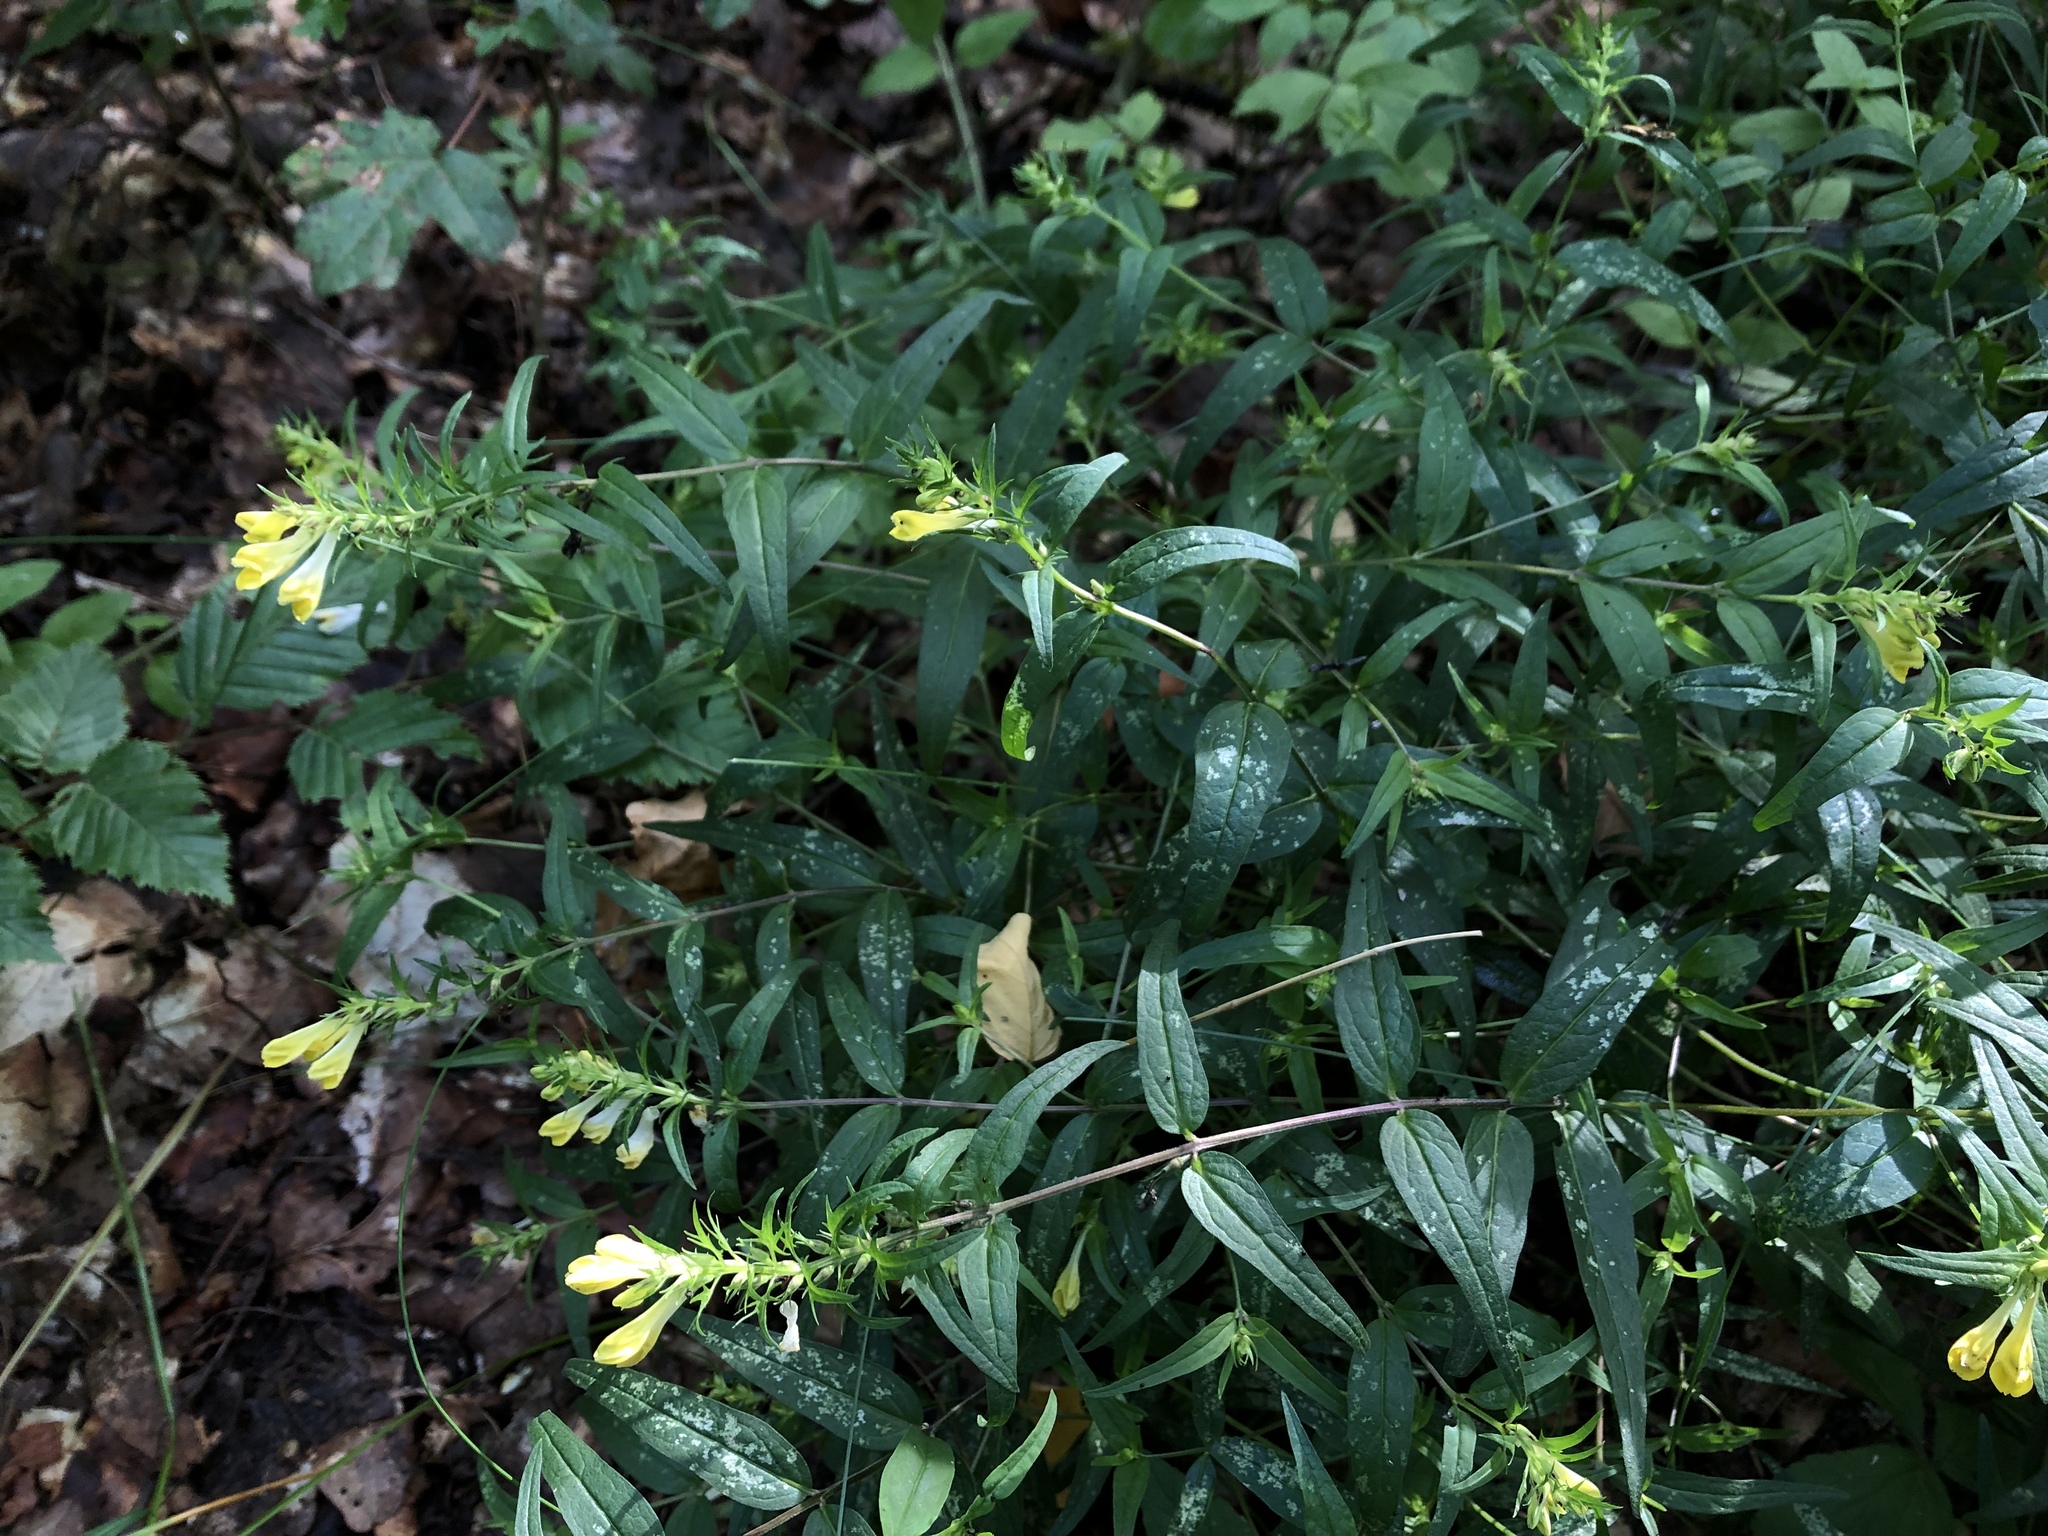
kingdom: Plantae
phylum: Tracheophyta
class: Magnoliopsida
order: Lamiales
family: Orobanchaceae
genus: Melampyrum
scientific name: Melampyrum pratense
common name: Common cow-wheat
